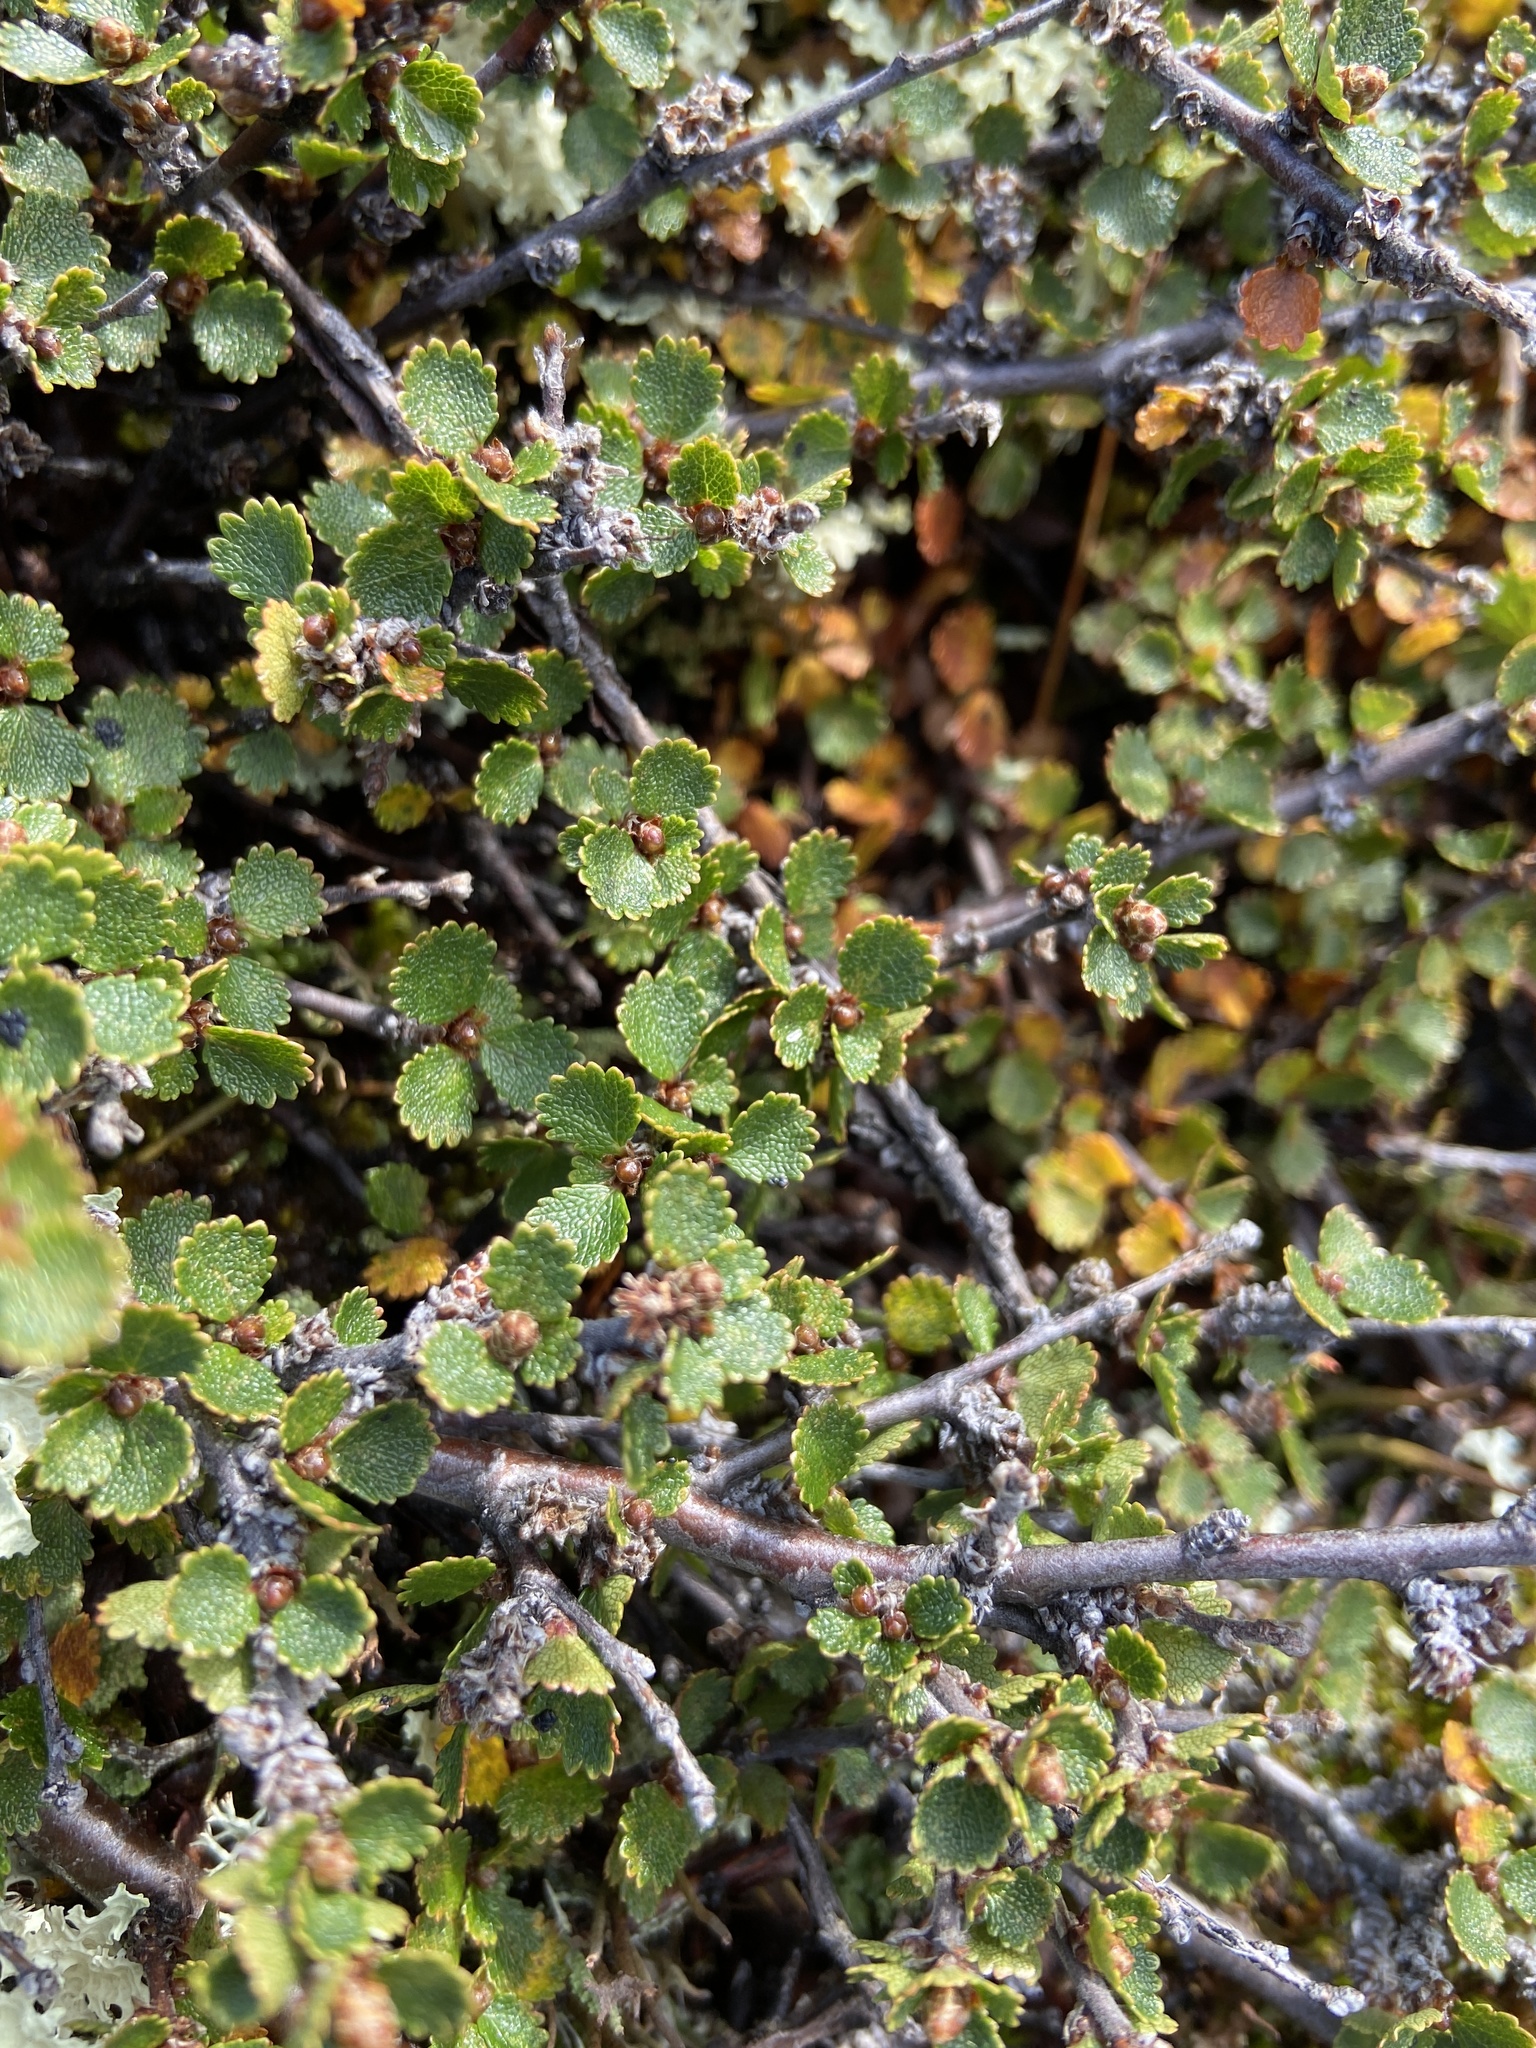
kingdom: Plantae
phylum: Tracheophyta
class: Magnoliopsida
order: Fagales
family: Betulaceae
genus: Betula
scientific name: Betula nana
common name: Arctic dwarf birch
